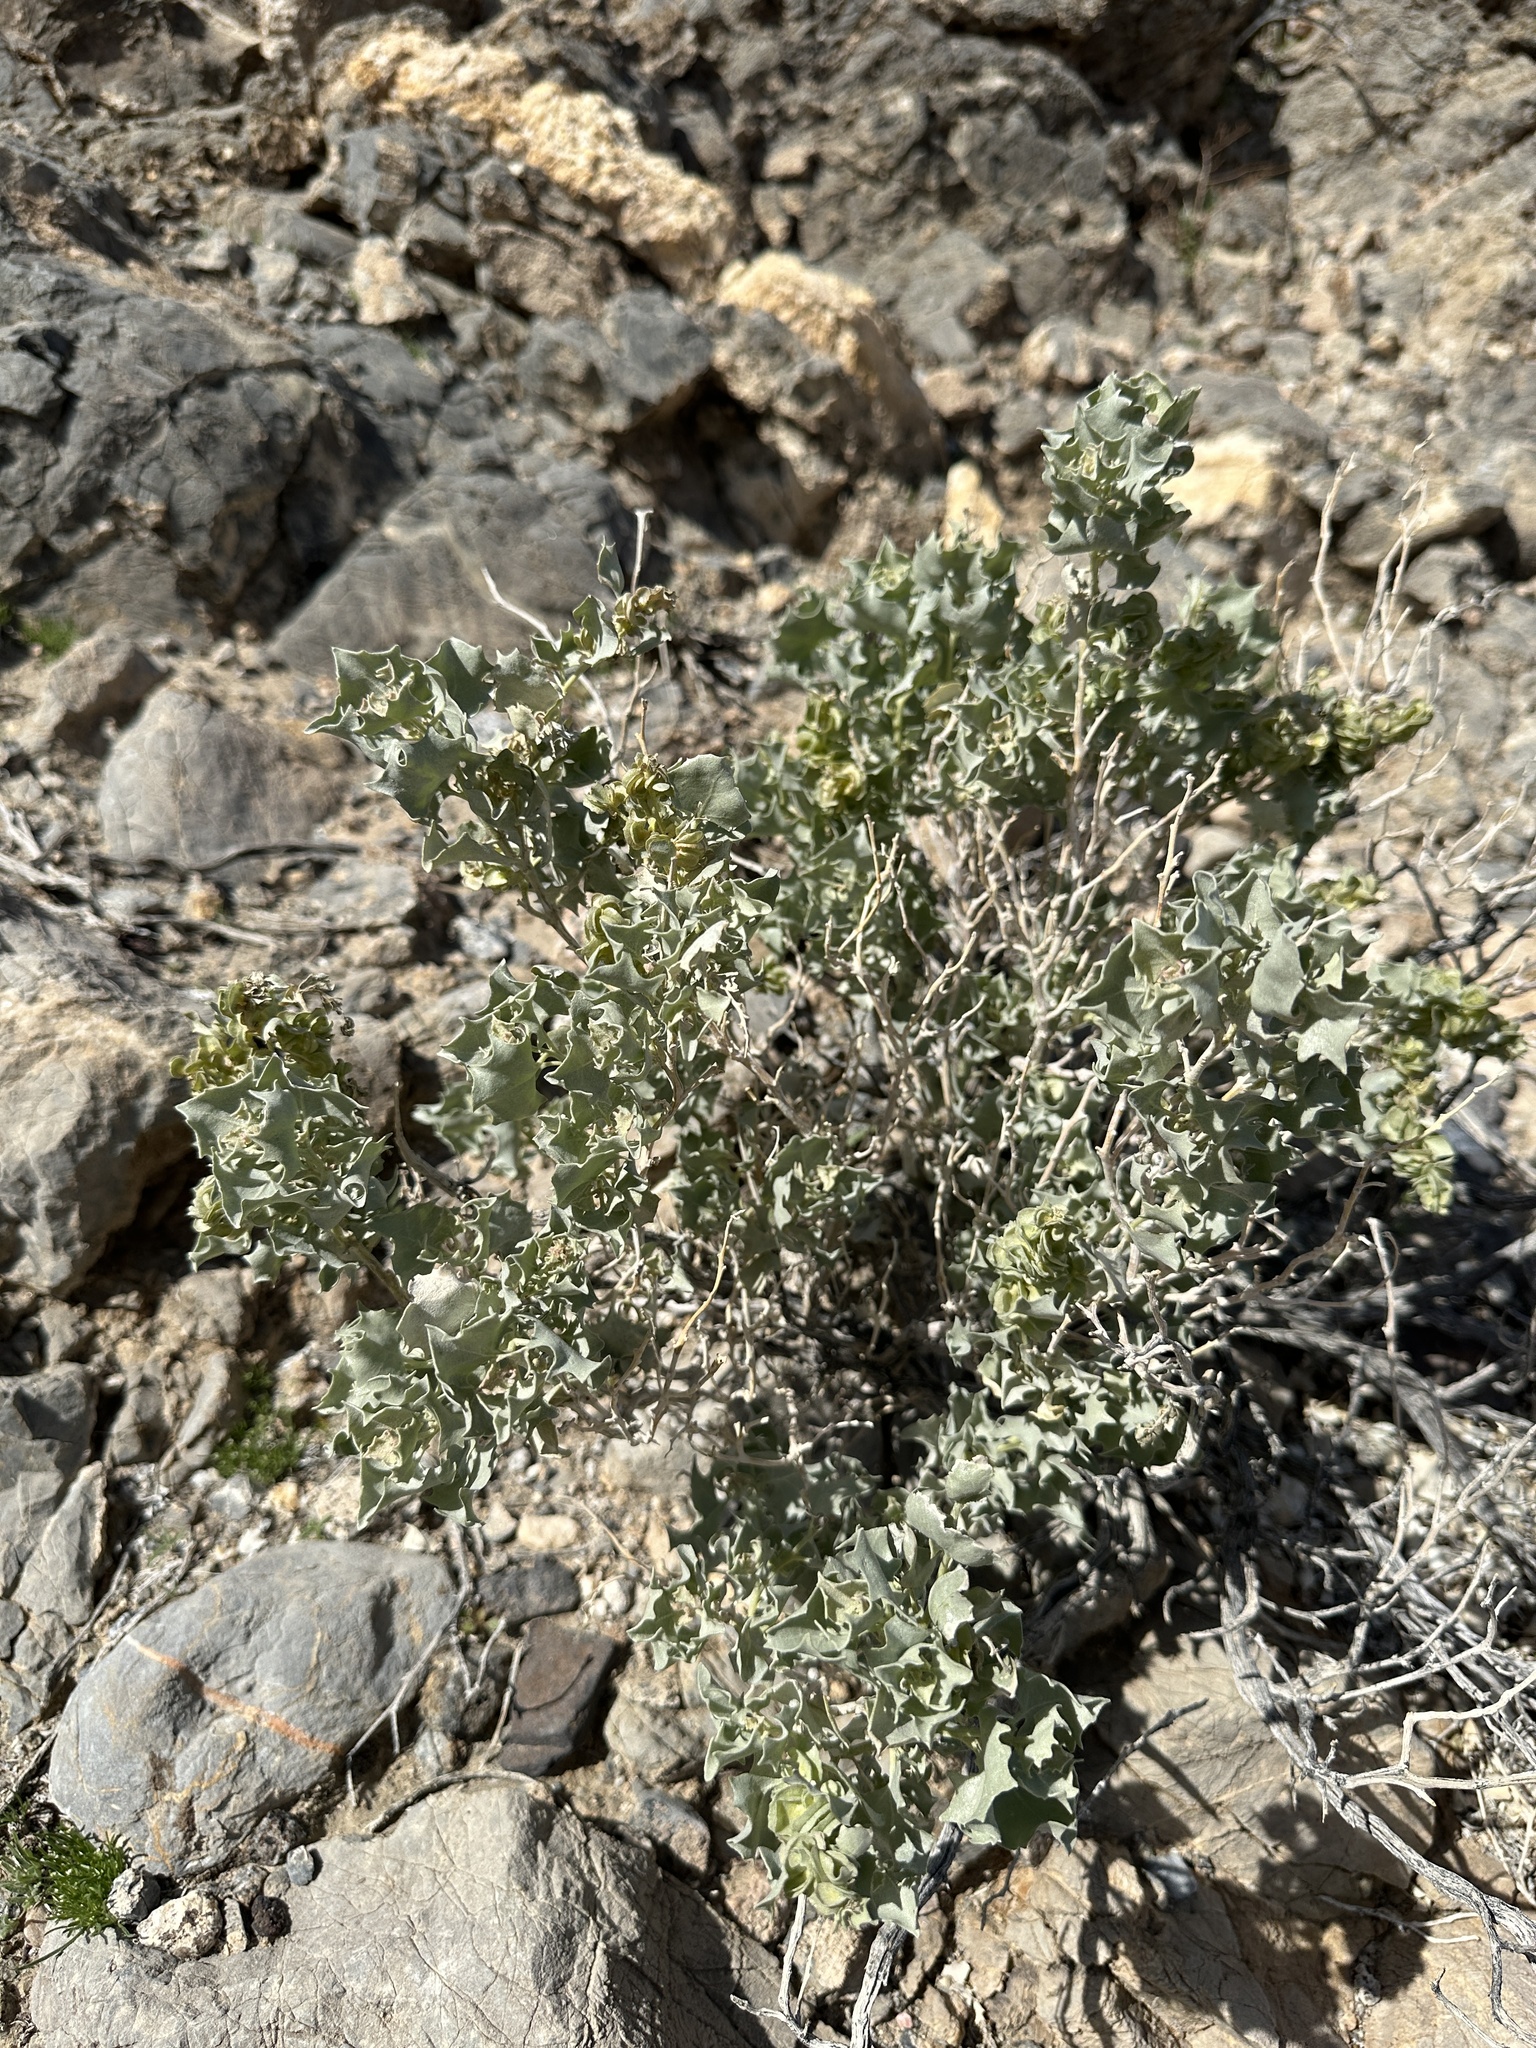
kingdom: Plantae
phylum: Tracheophyta
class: Magnoliopsida
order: Caryophyllales
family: Amaranthaceae
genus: Atriplex
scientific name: Atriplex hymenelytra
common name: Desert-holly
